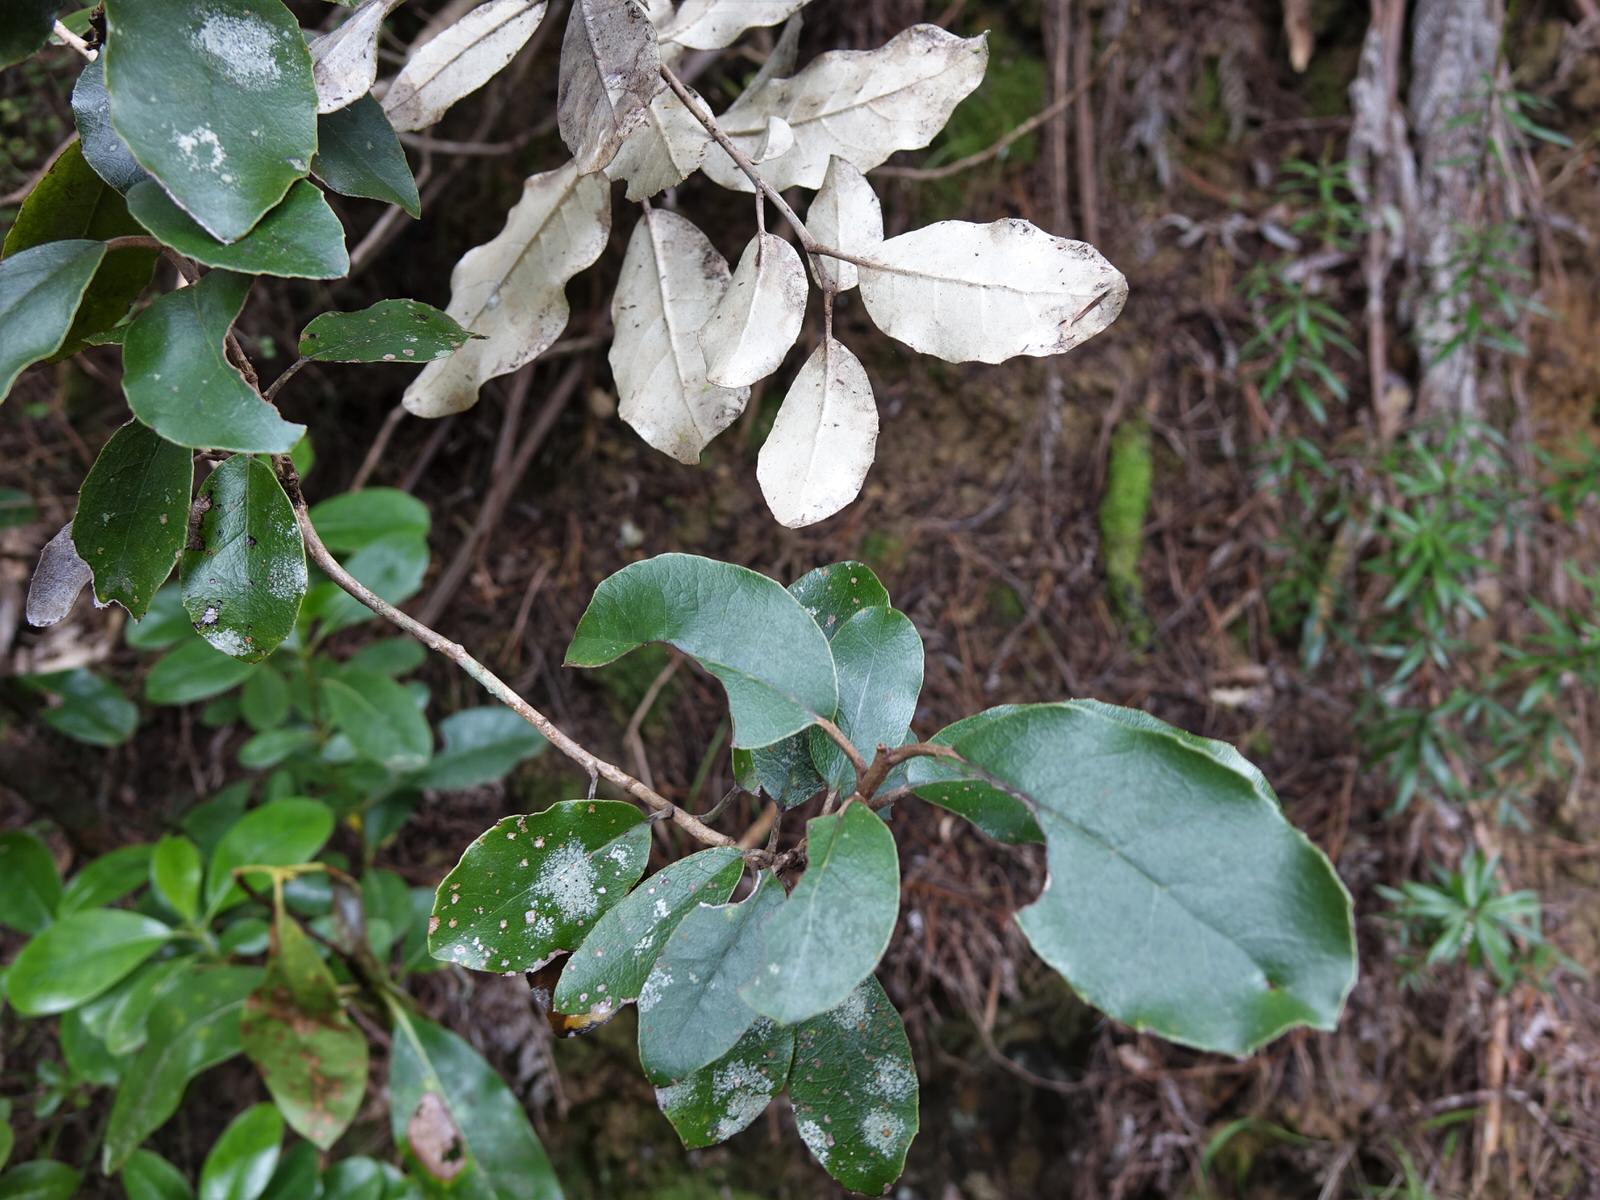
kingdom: Plantae
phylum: Tracheophyta
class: Magnoliopsida
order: Asterales
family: Asteraceae
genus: Olearia
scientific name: Olearia furfuracea
